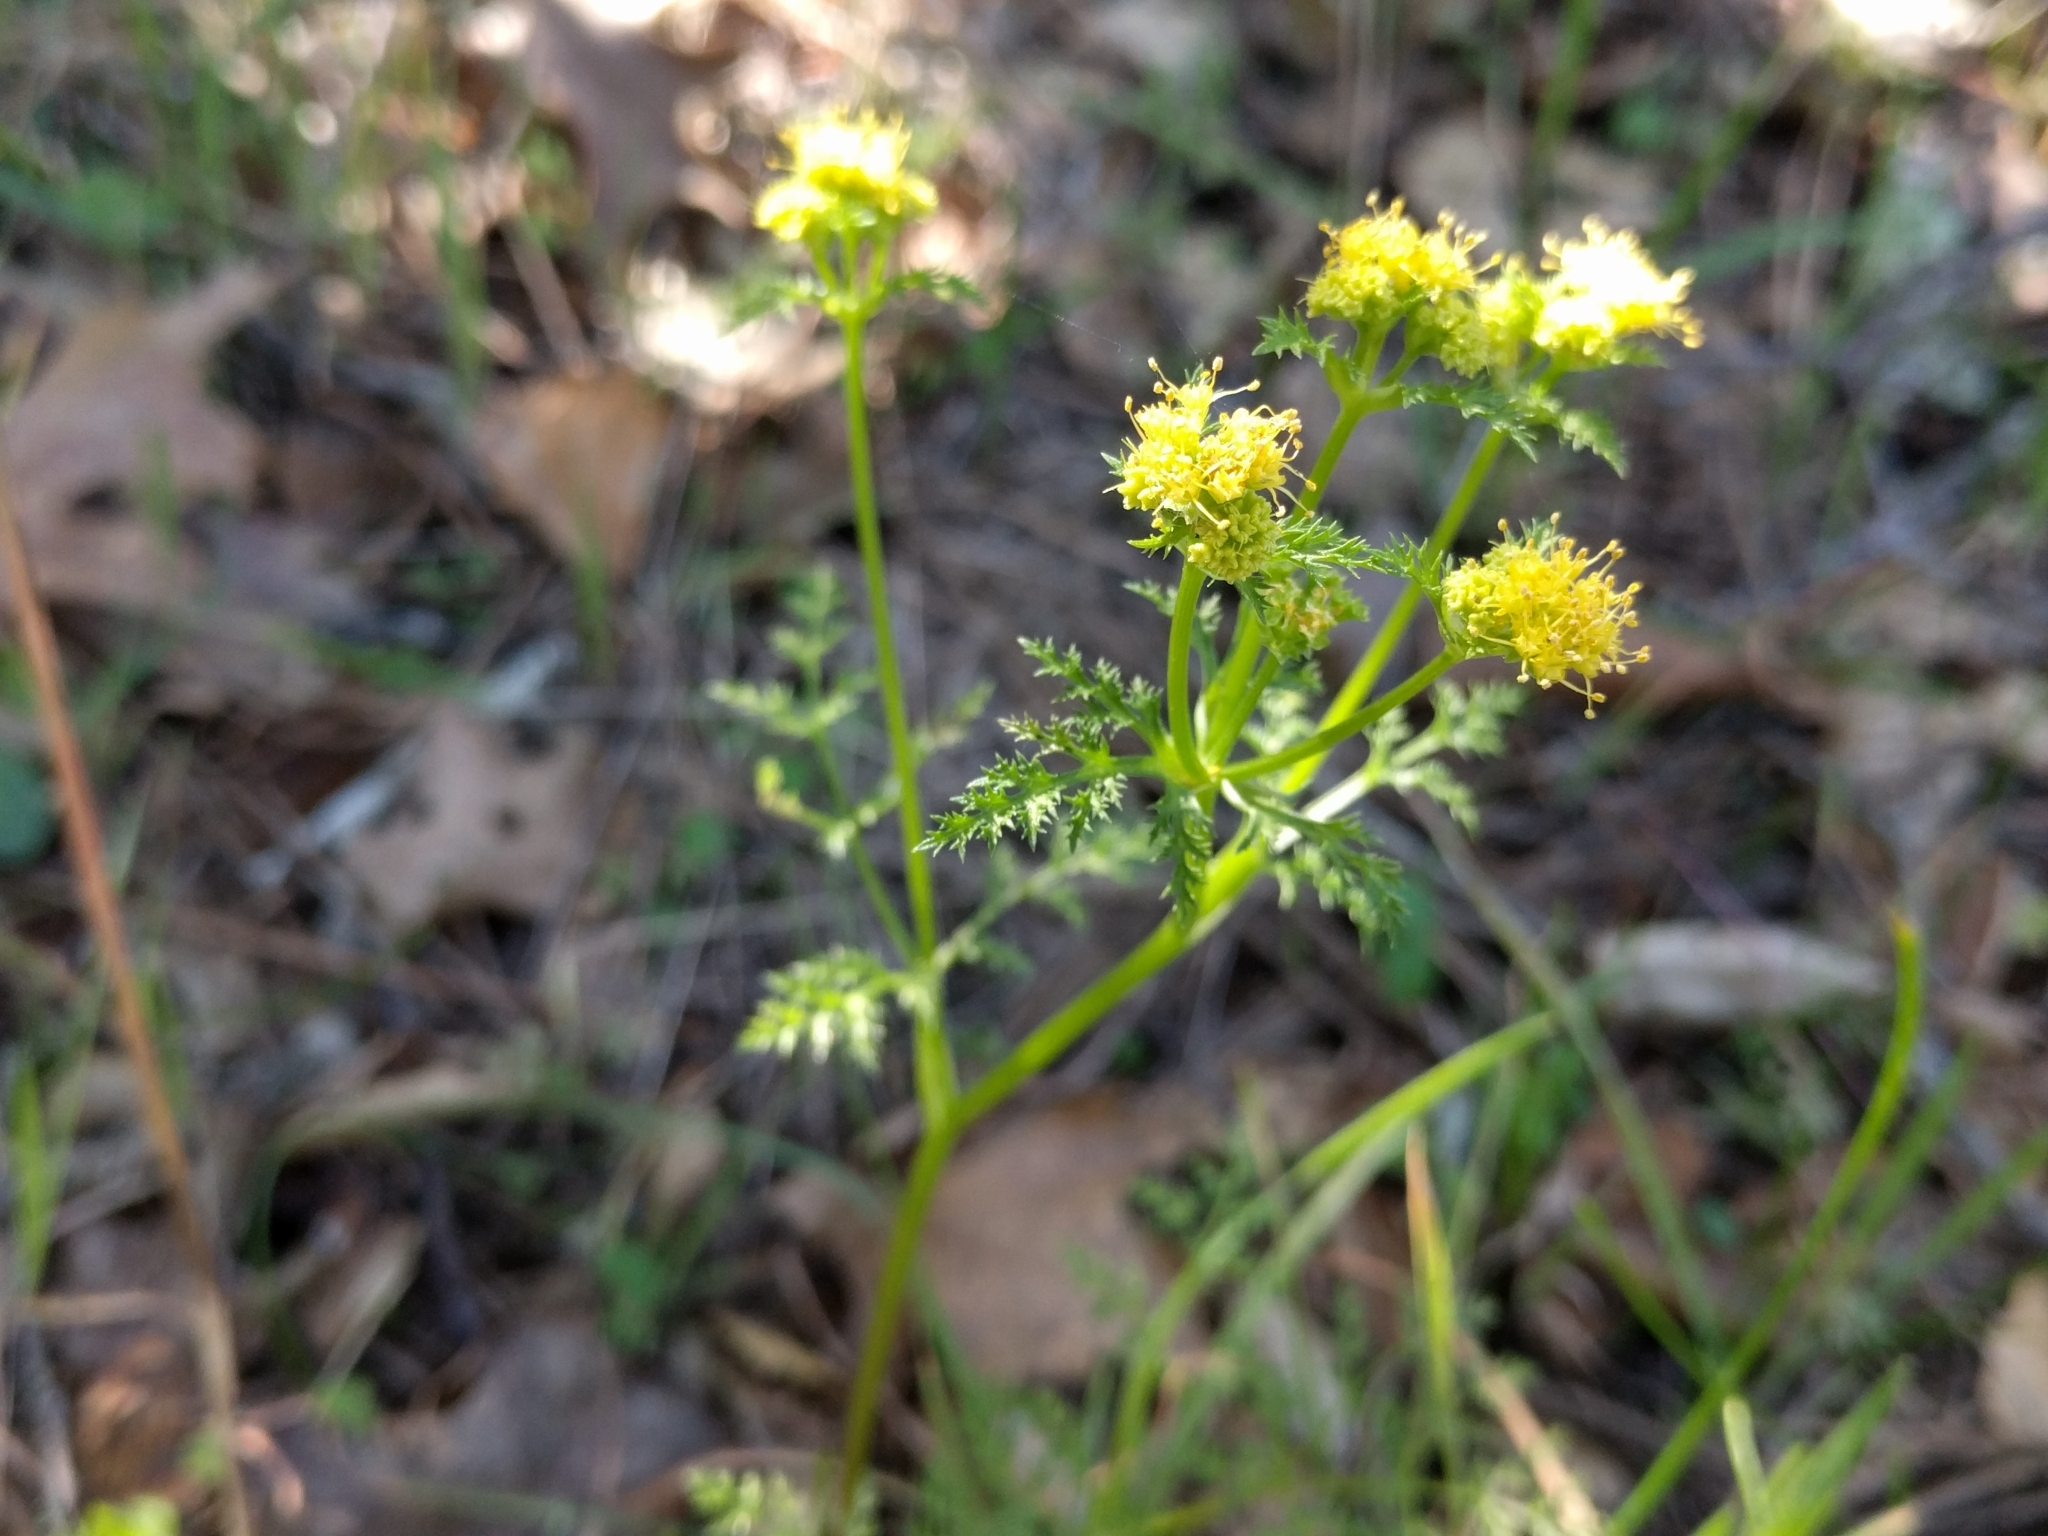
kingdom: Plantae
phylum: Tracheophyta
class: Magnoliopsida
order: Apiales
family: Apiaceae
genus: Sanicula
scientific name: Sanicula tuberosa
